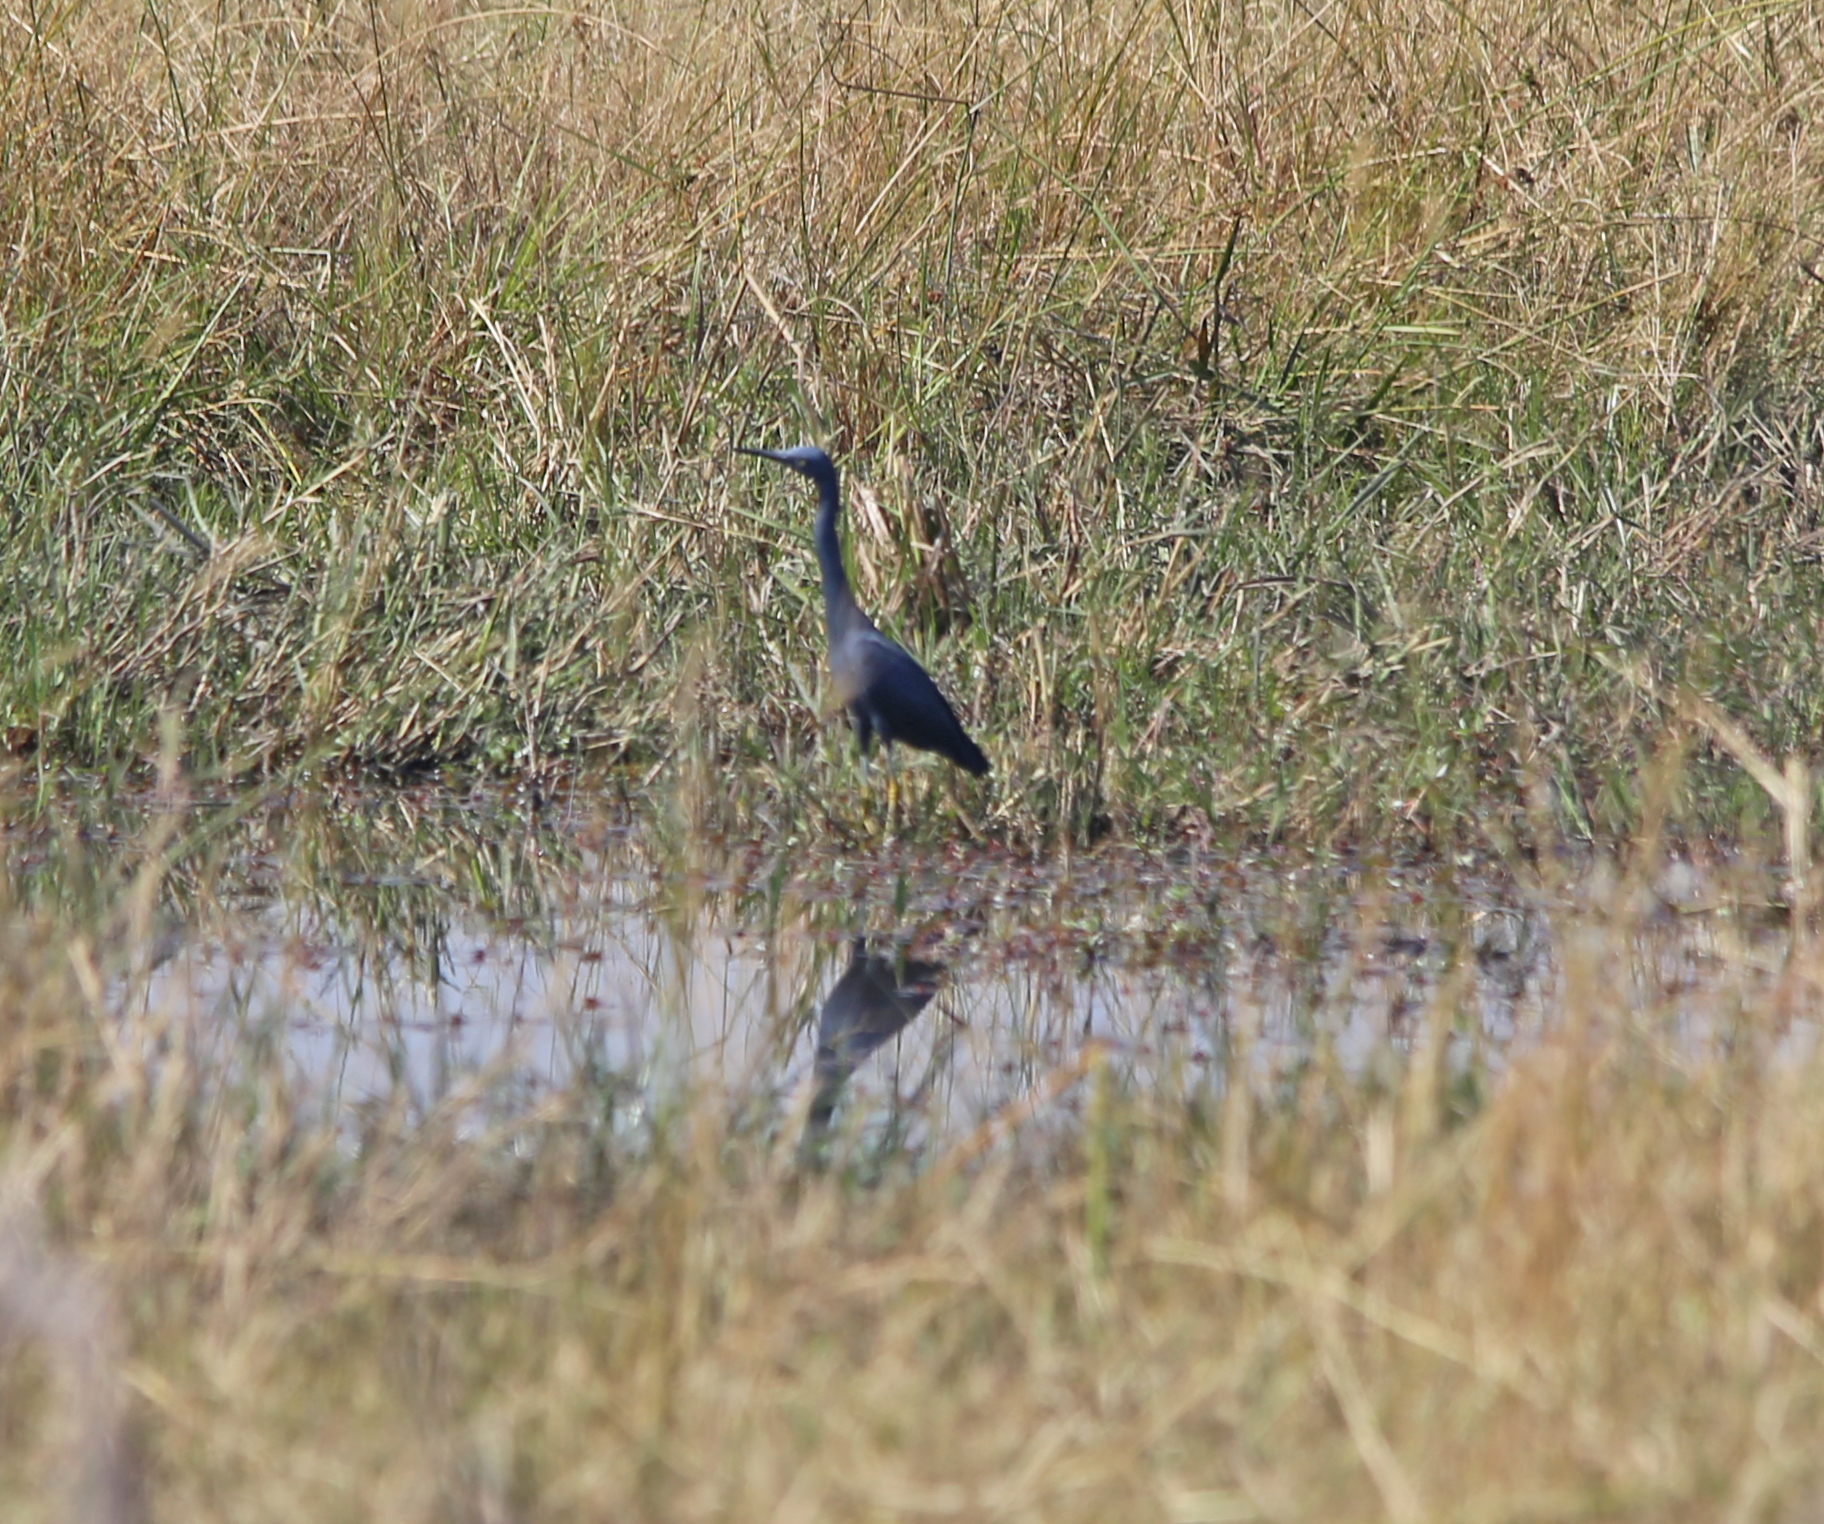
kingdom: Animalia
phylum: Chordata
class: Aves
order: Pelecaniformes
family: Ardeidae
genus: Egretta
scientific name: Egretta ardesiaca
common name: Black heron
